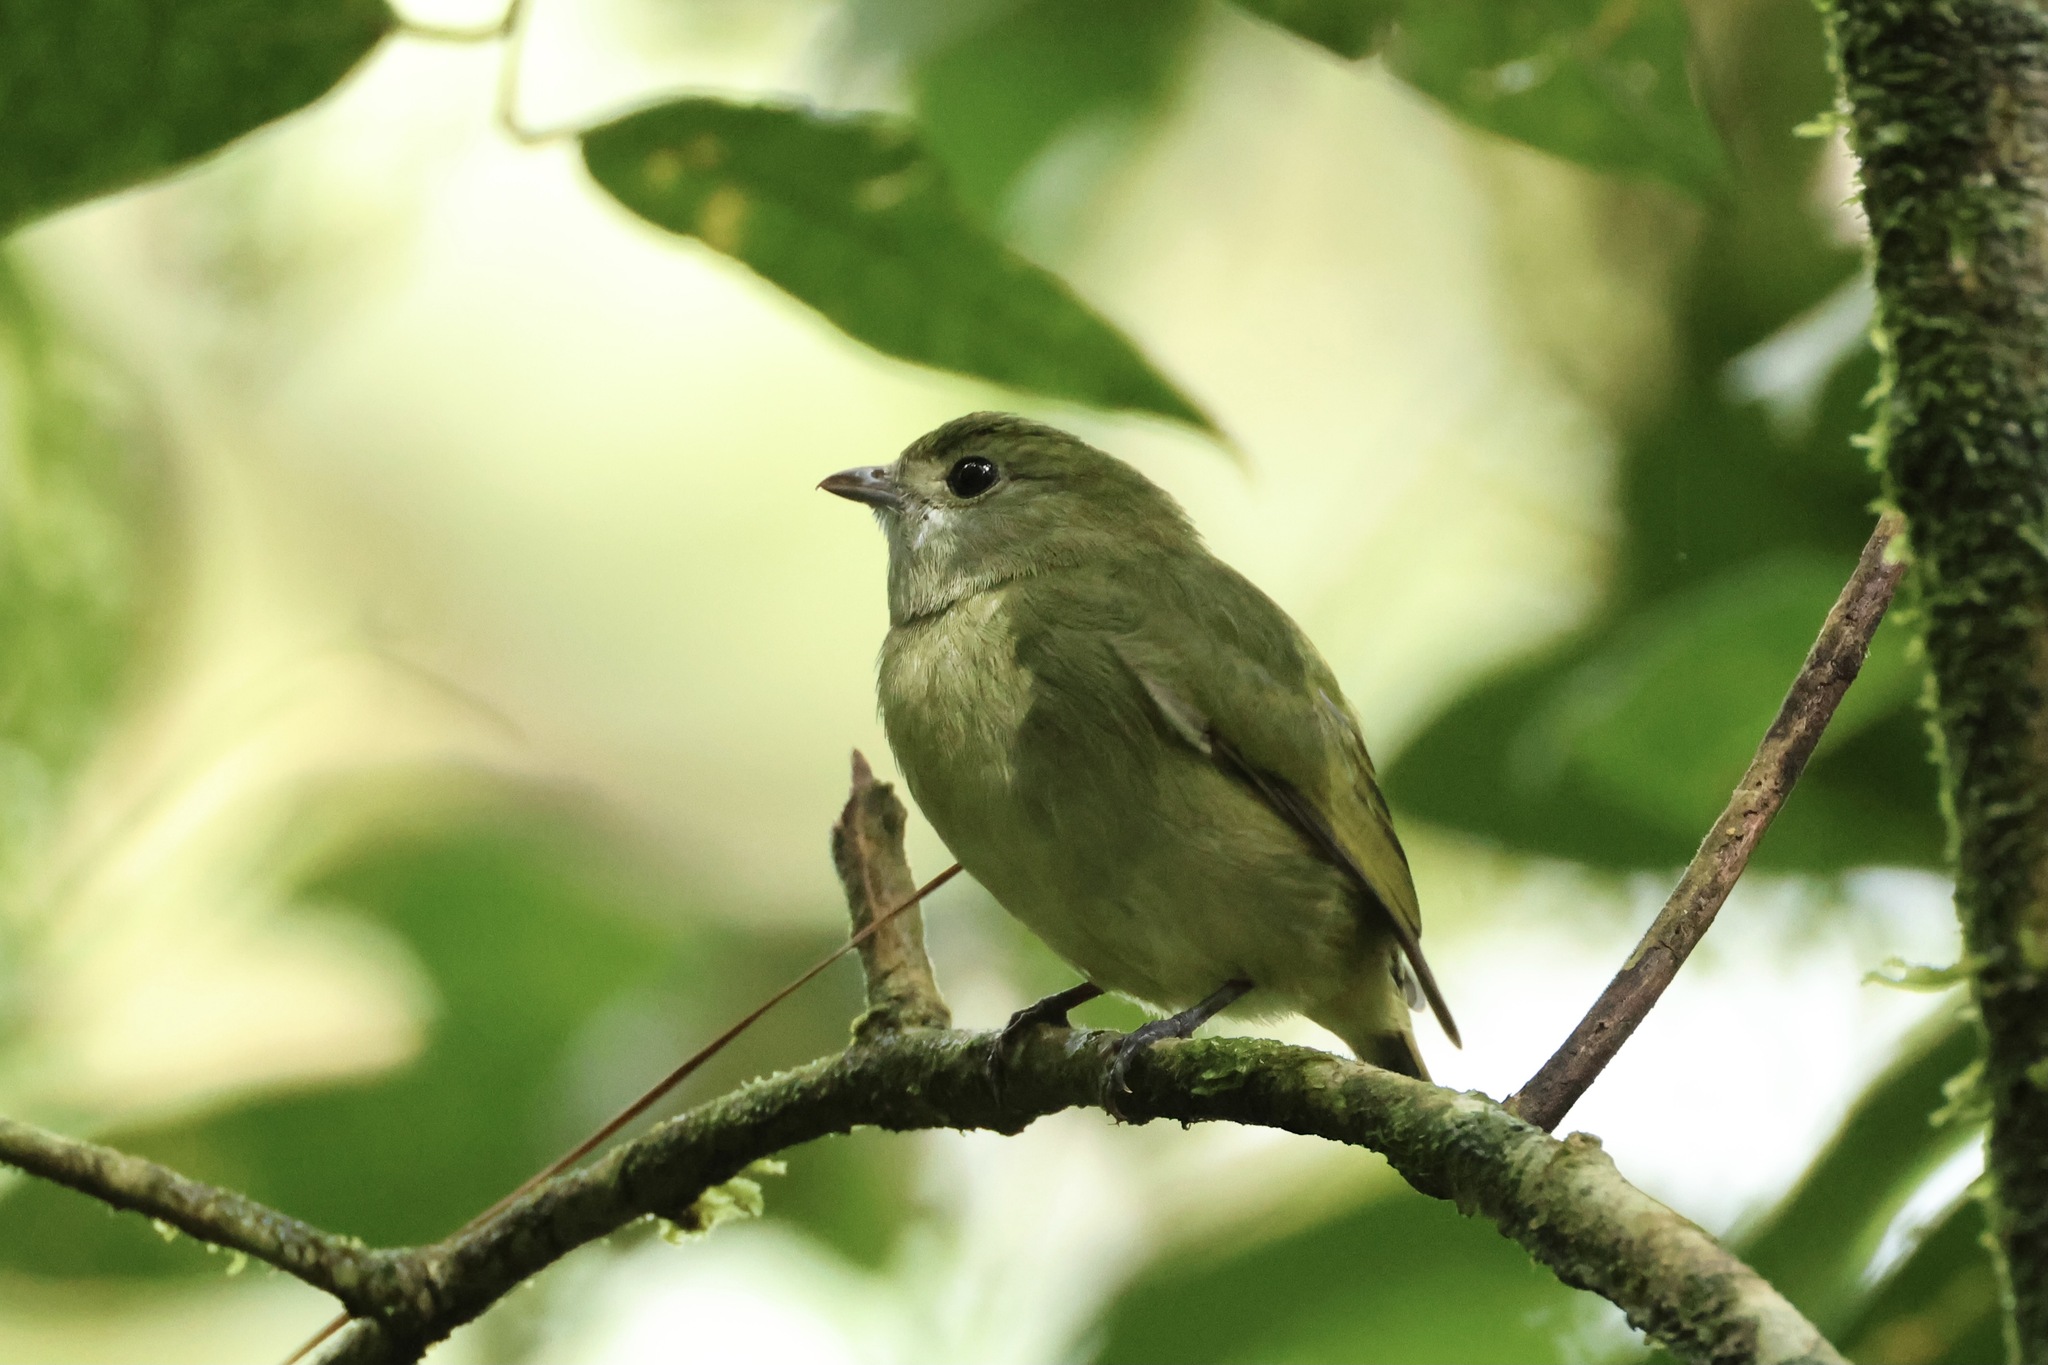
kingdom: Animalia
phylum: Chordata
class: Aves
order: Passeriformes
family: Pipridae
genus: Corapipo
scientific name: Corapipo altera
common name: White-ruffed manakin
